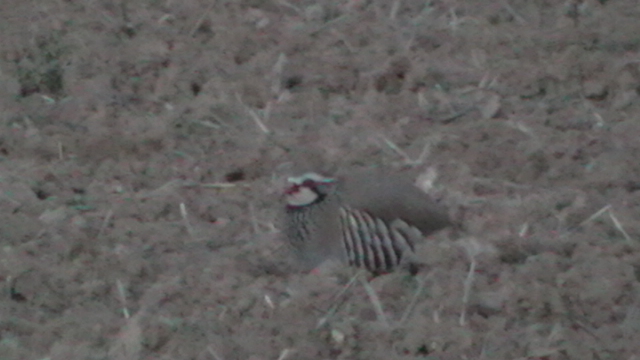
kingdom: Animalia
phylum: Chordata
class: Aves
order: Galliformes
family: Phasianidae
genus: Alectoris
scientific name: Alectoris rufa
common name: Red-legged partridge
